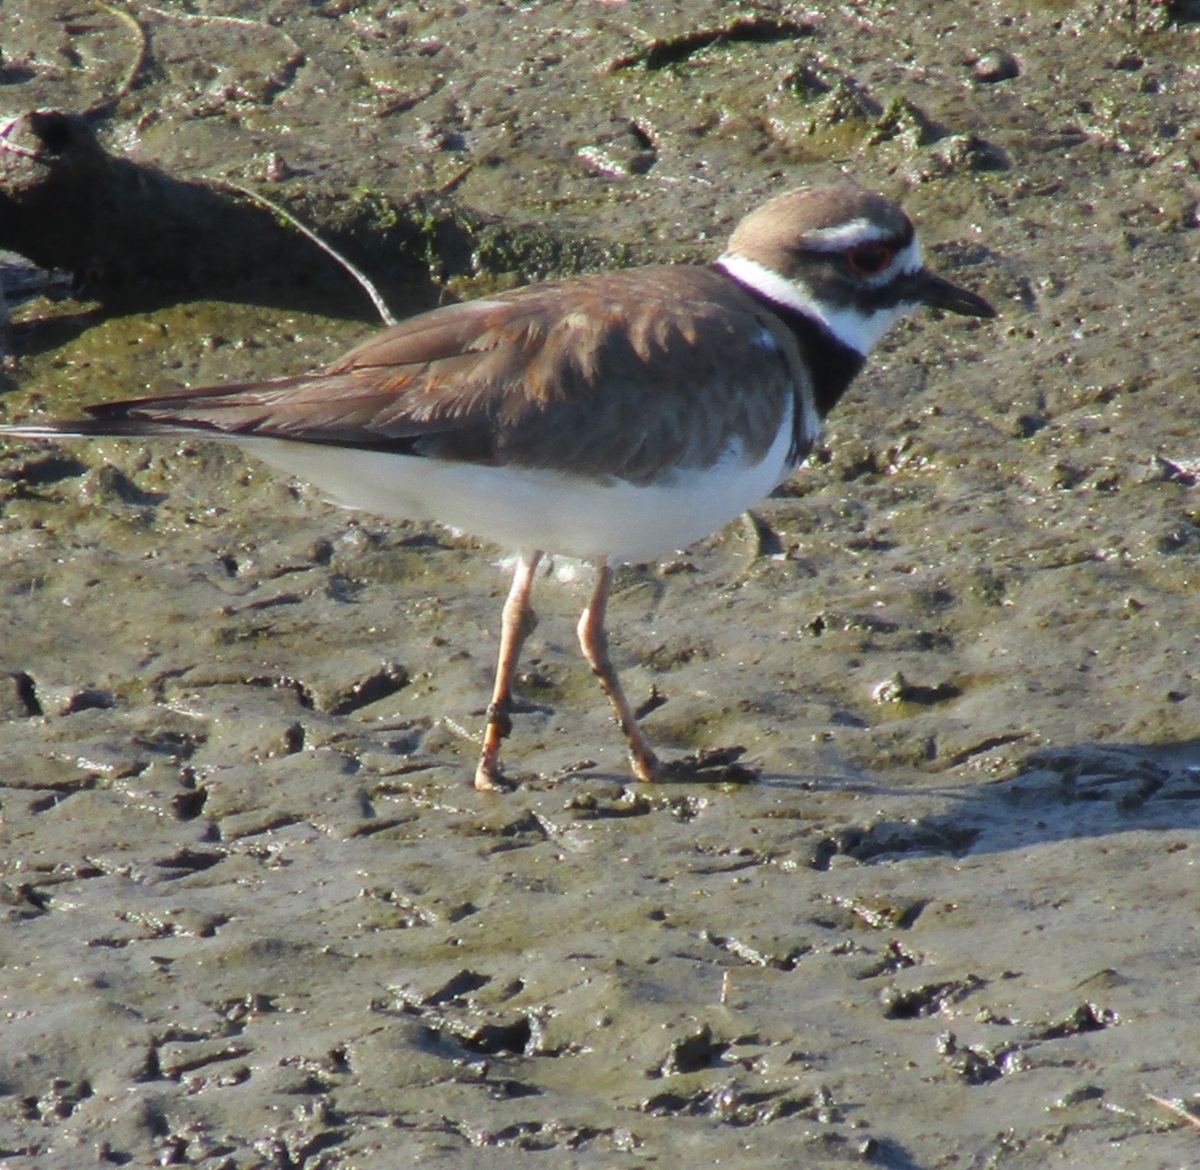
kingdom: Animalia
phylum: Chordata
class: Aves
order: Charadriiformes
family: Charadriidae
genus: Charadrius
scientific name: Charadrius vociferus
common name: Killdeer
